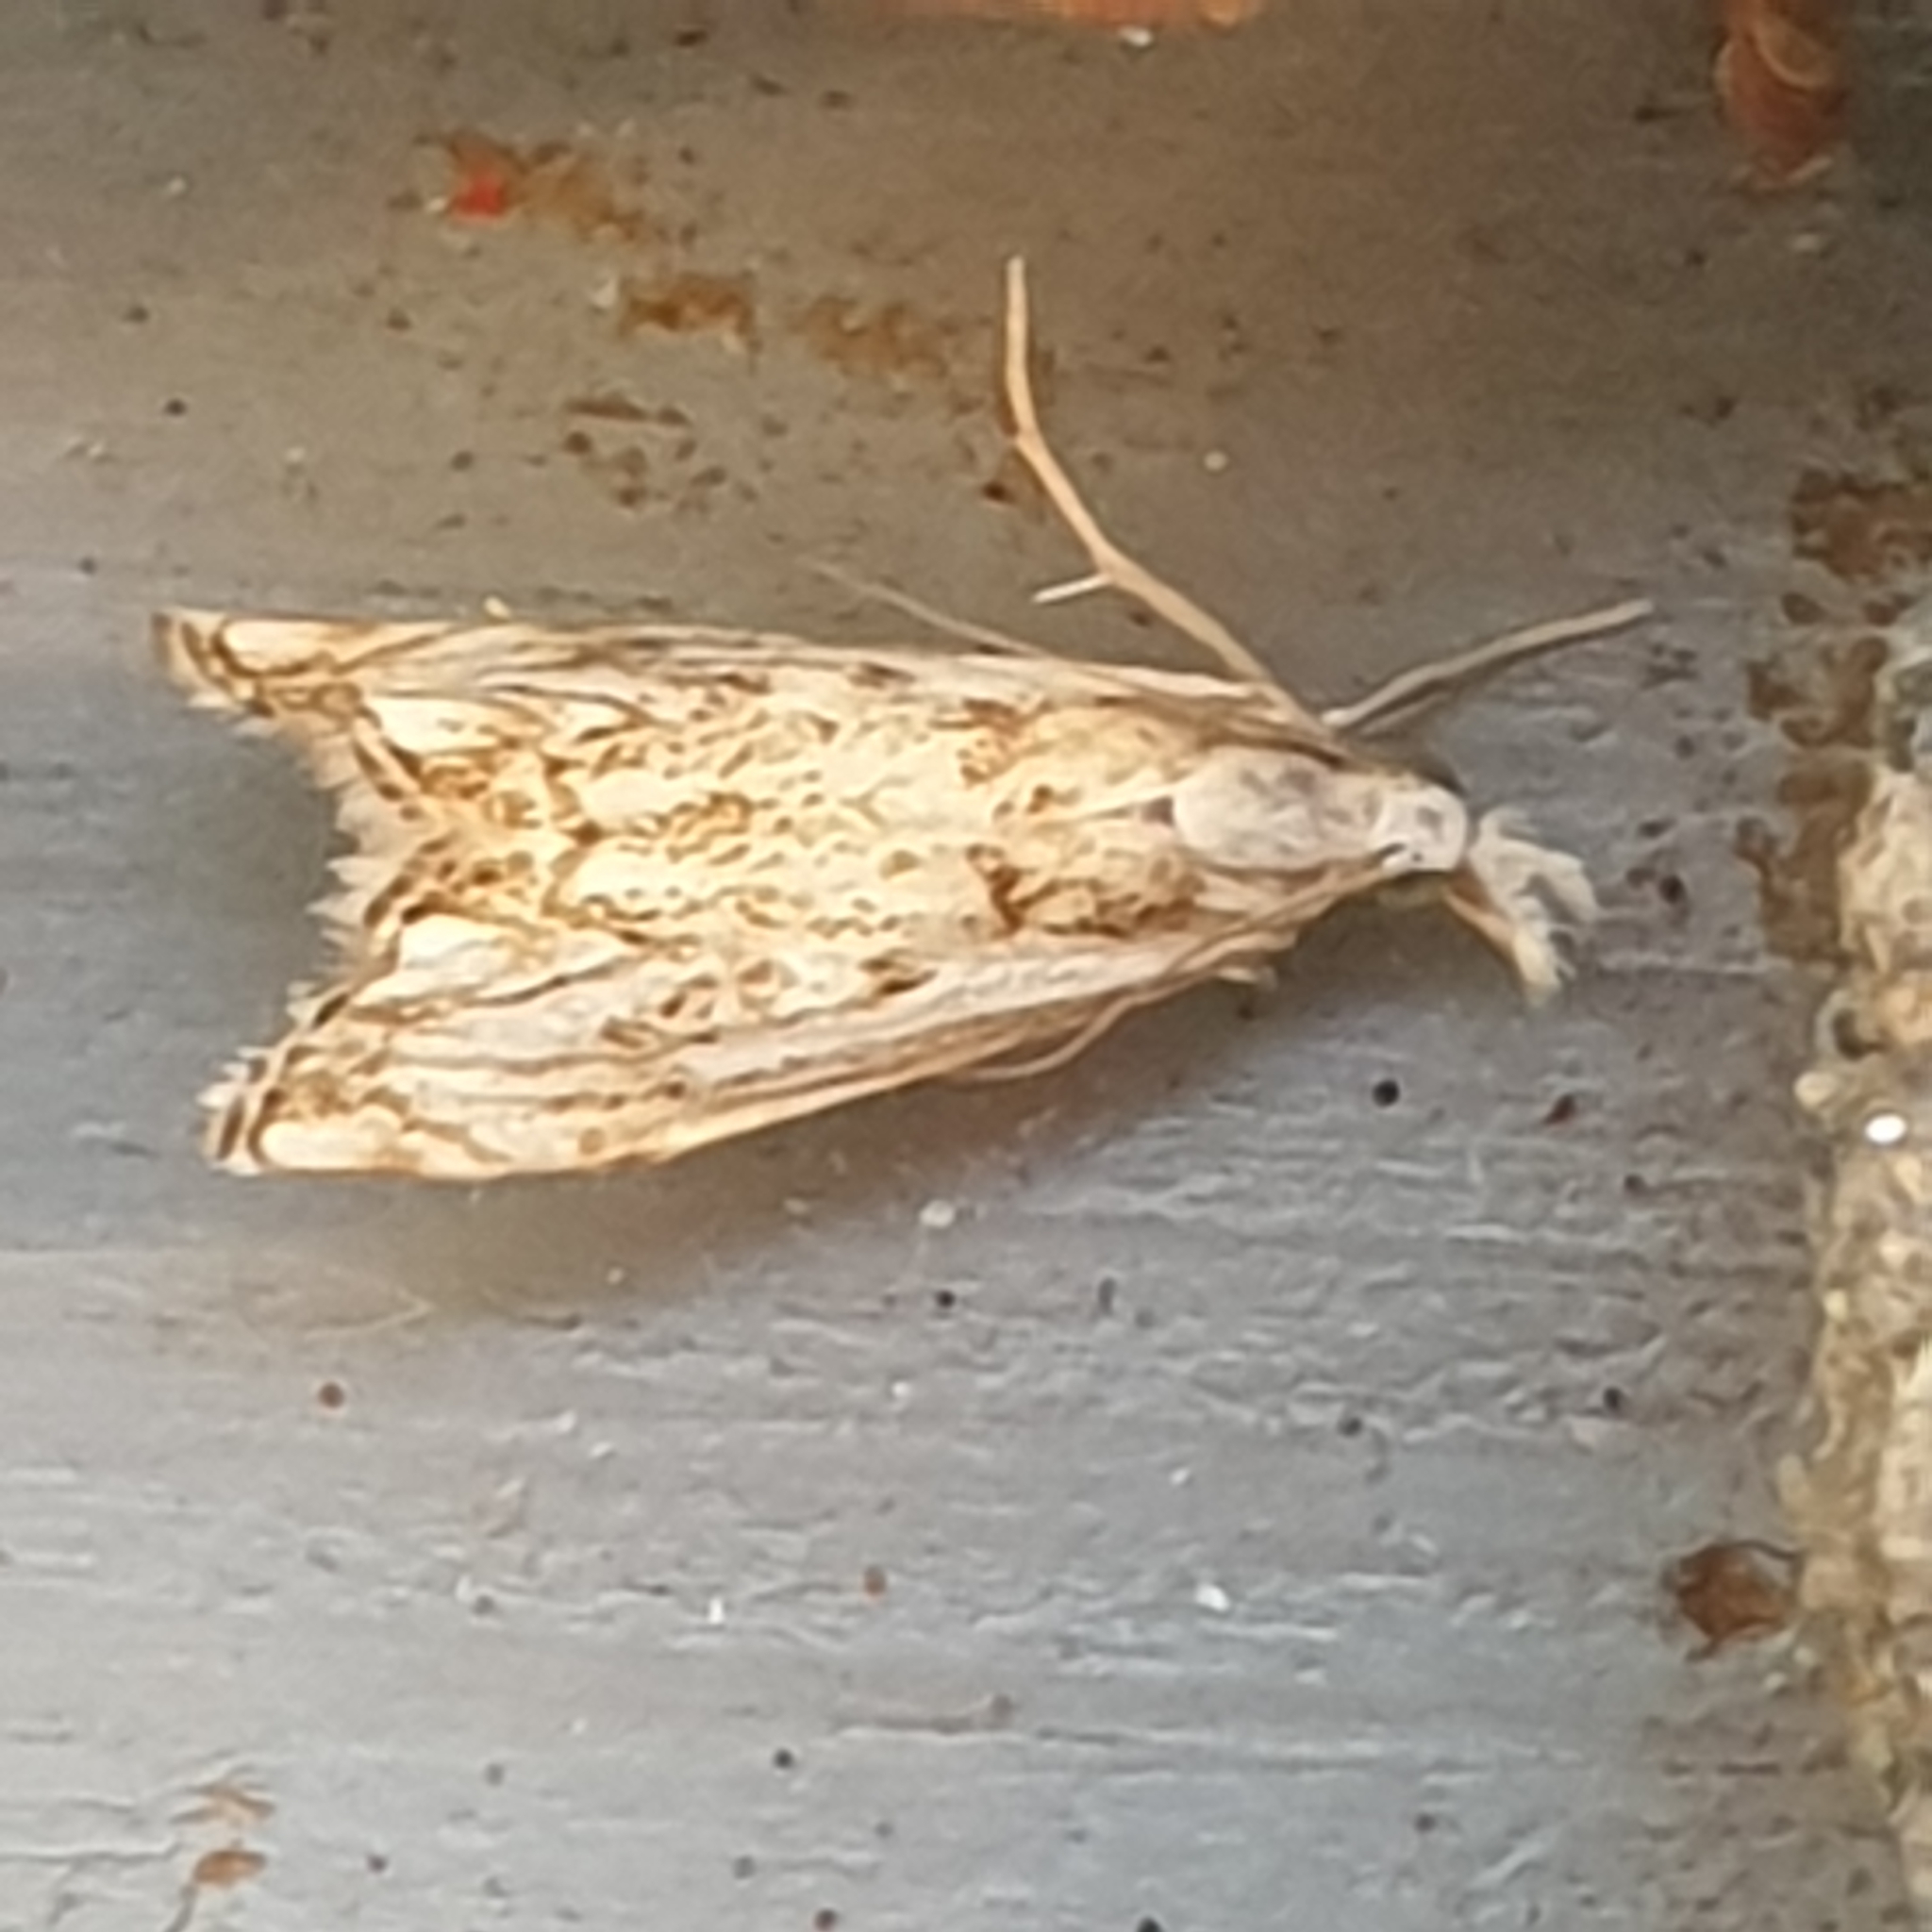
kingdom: Animalia
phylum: Arthropoda
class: Insecta
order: Lepidoptera
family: Crambidae
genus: Catoptria
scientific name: Catoptria falsella
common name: Chequered grass-veneer
